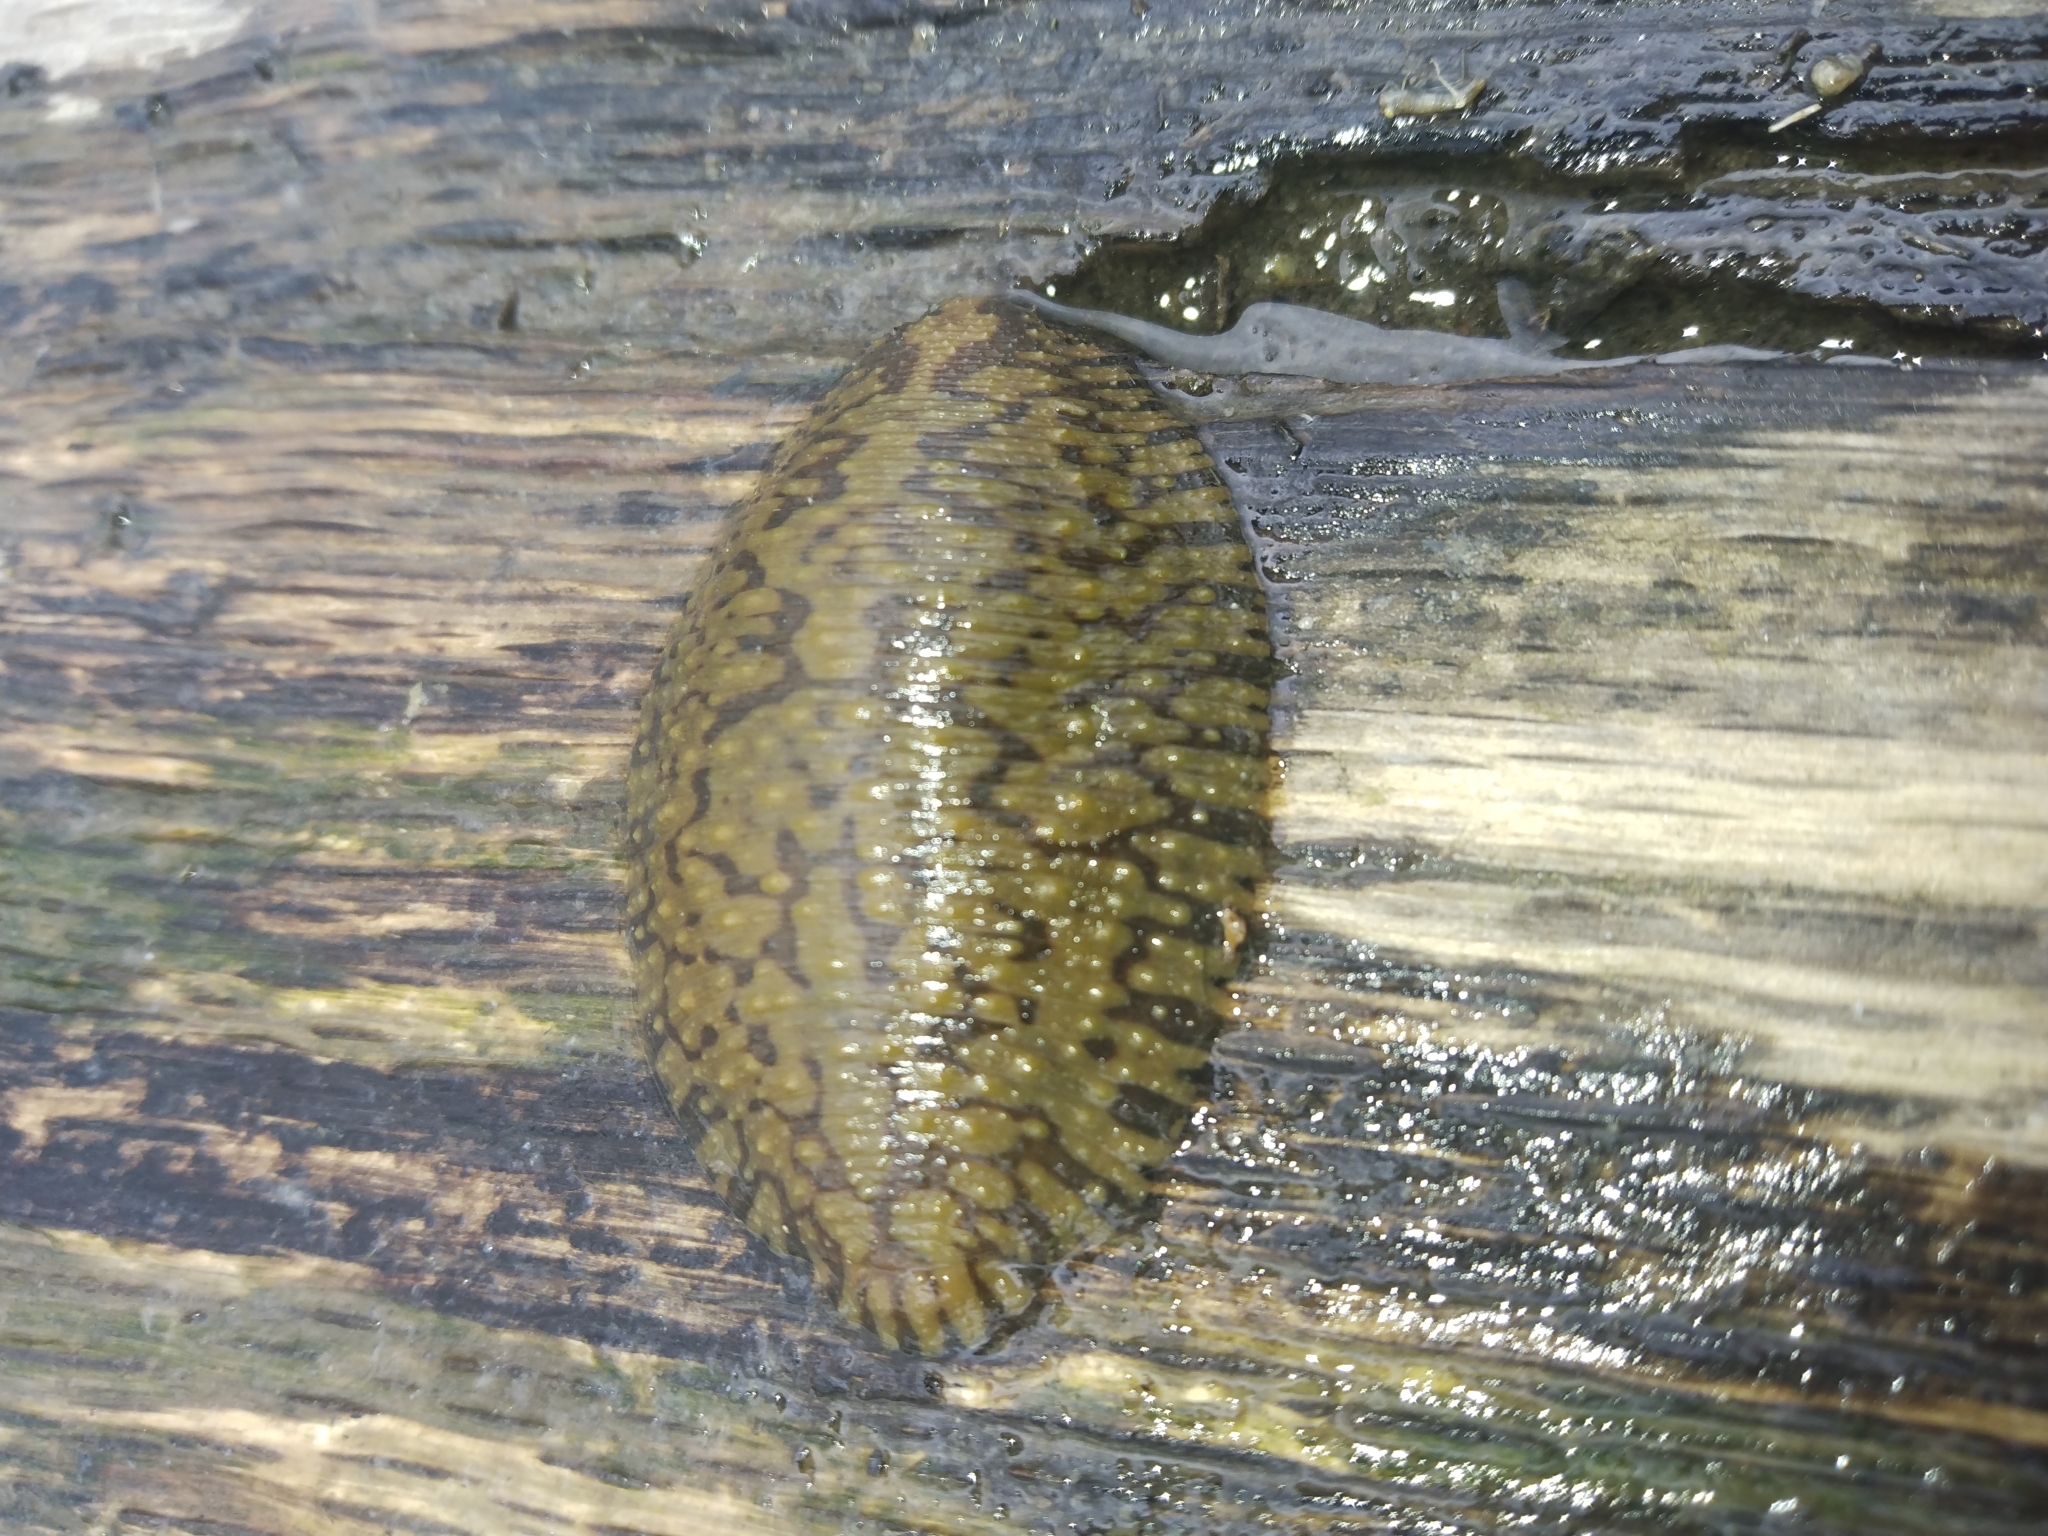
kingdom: Animalia
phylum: Annelida
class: Clitellata
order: Rhynchobdellida
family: Glossiphoniidae
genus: Placobdella
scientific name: Placobdella parasitica
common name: Smooth turtle leech
